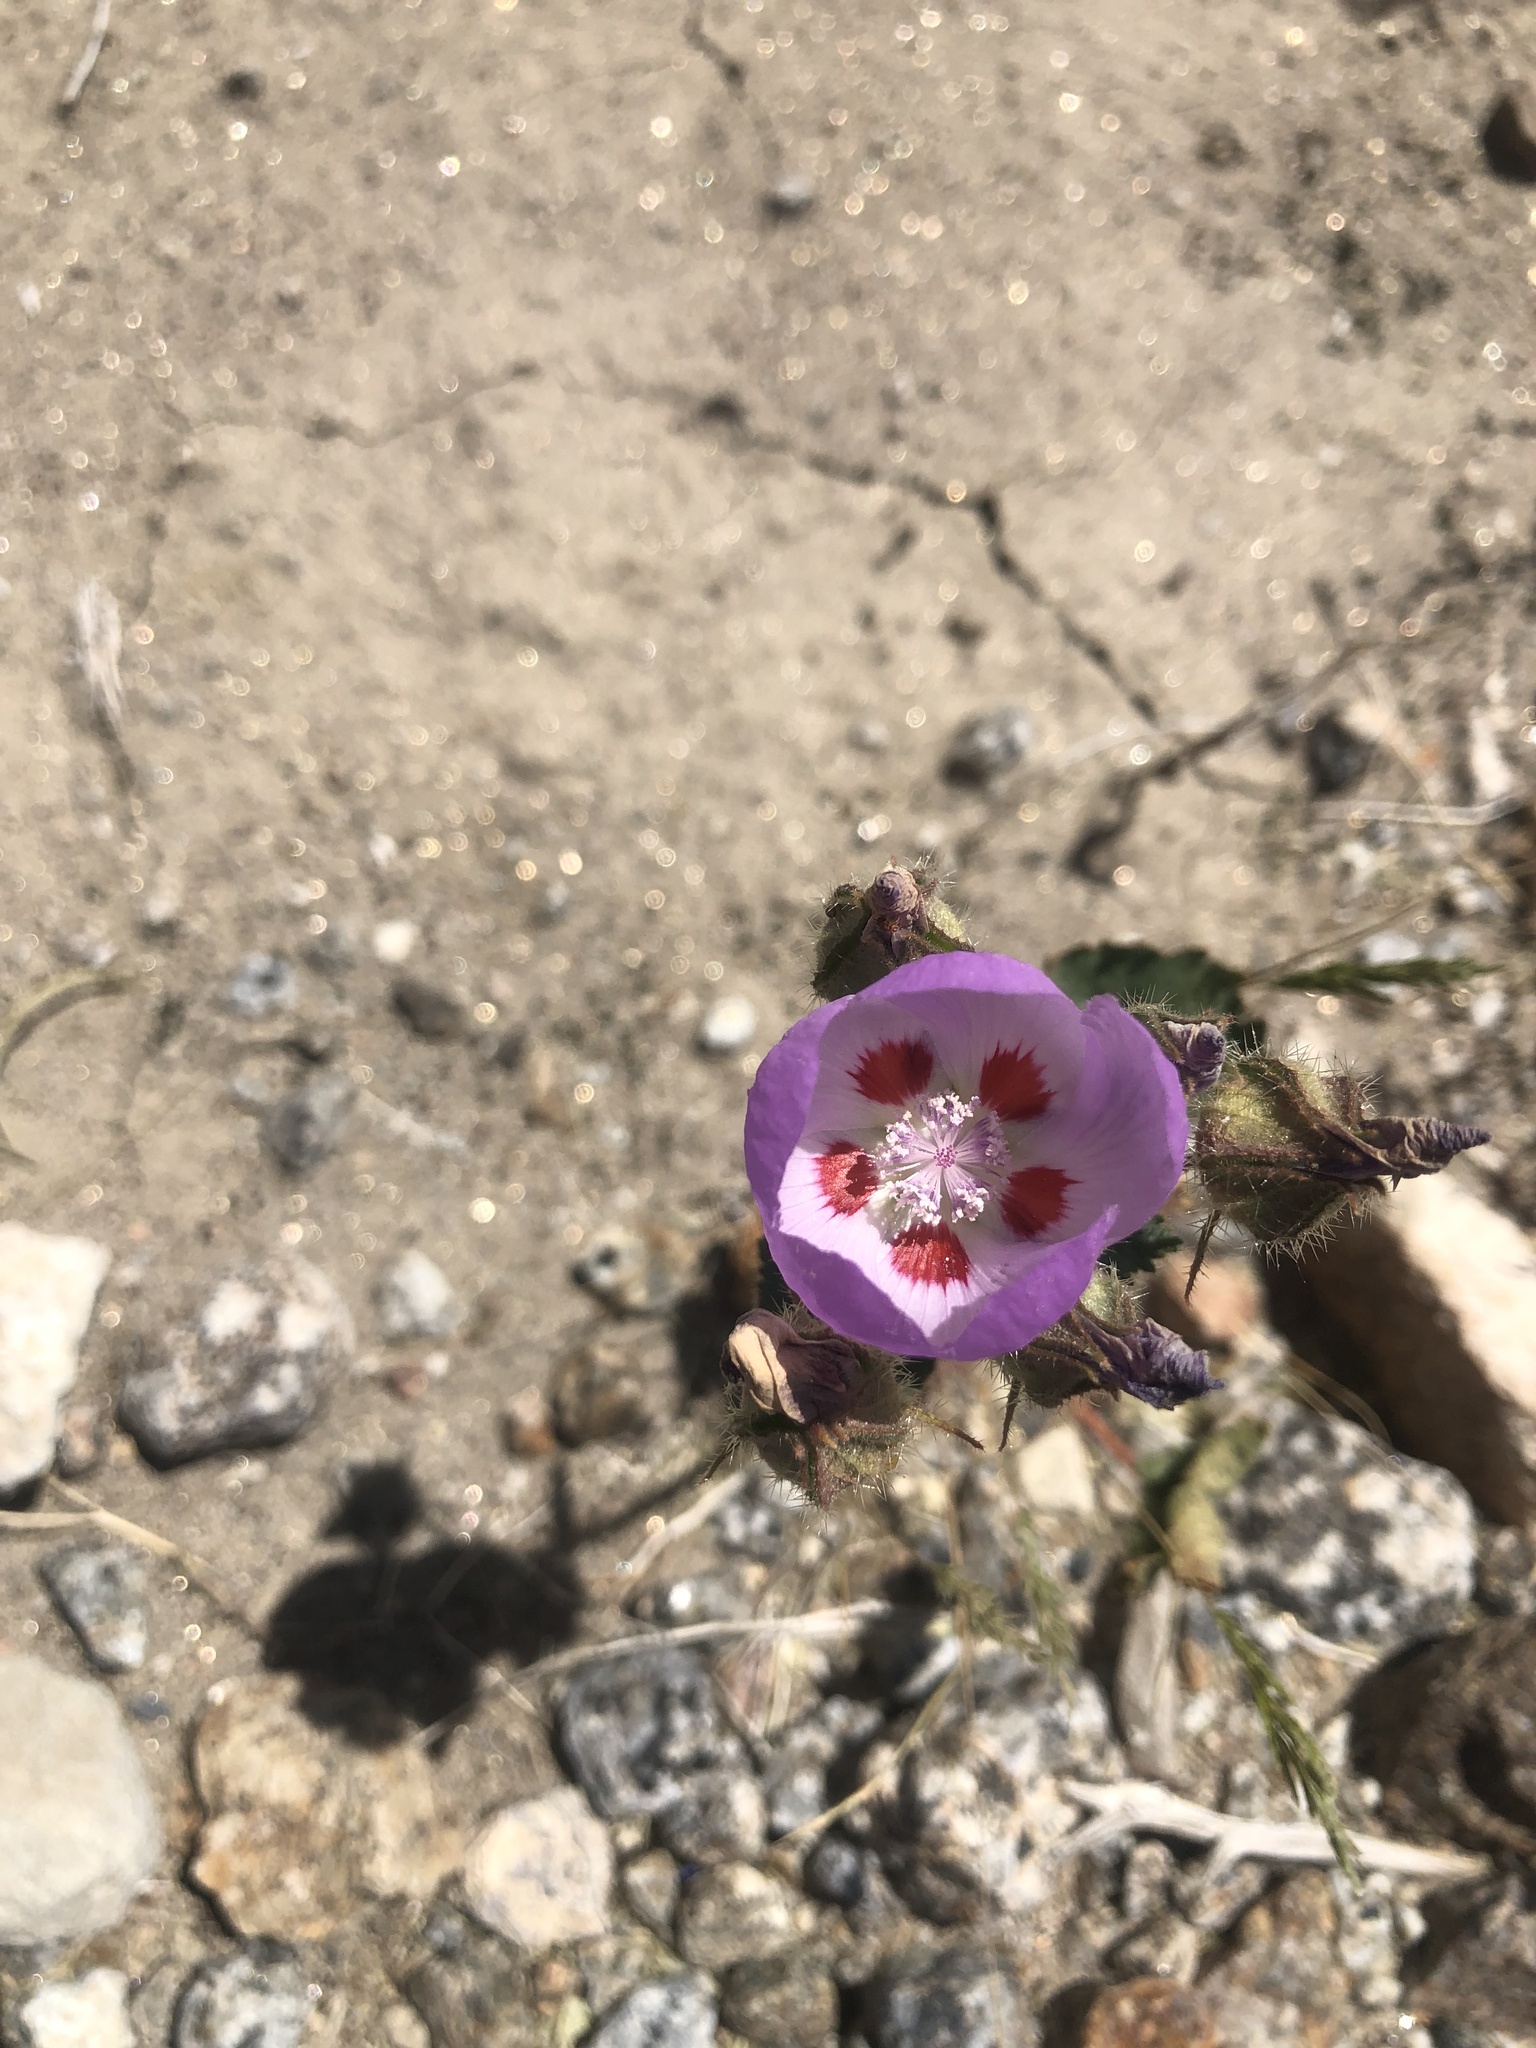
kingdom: Plantae
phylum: Tracheophyta
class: Magnoliopsida
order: Malvales
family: Malvaceae
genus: Eremalche
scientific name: Eremalche rotundifolia
